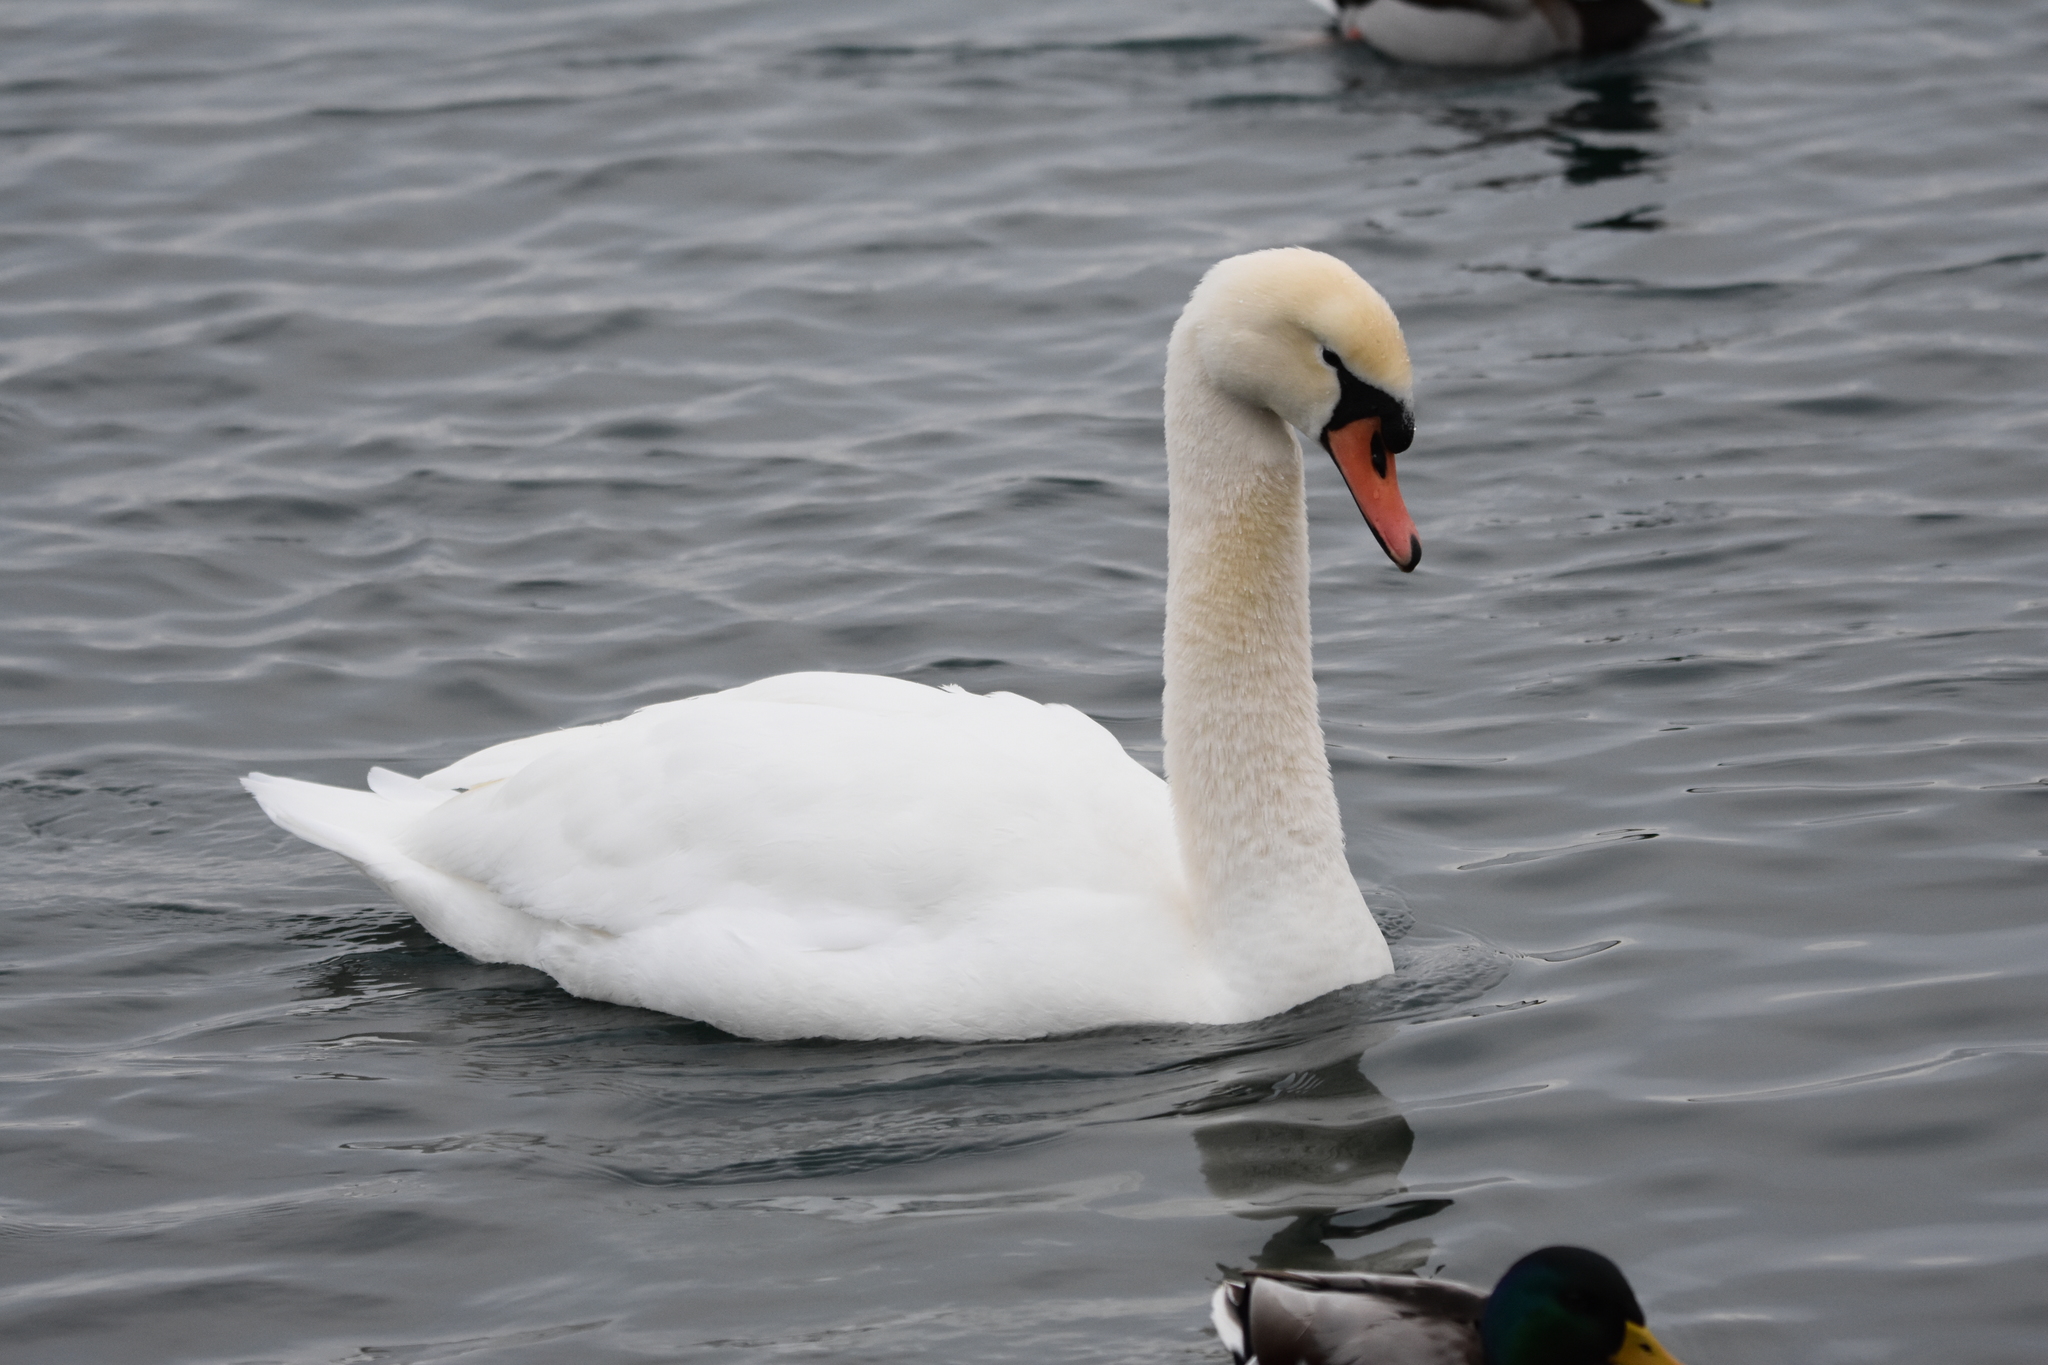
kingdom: Animalia
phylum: Chordata
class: Aves
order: Anseriformes
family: Anatidae
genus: Cygnus
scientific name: Cygnus olor
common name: Mute swan
